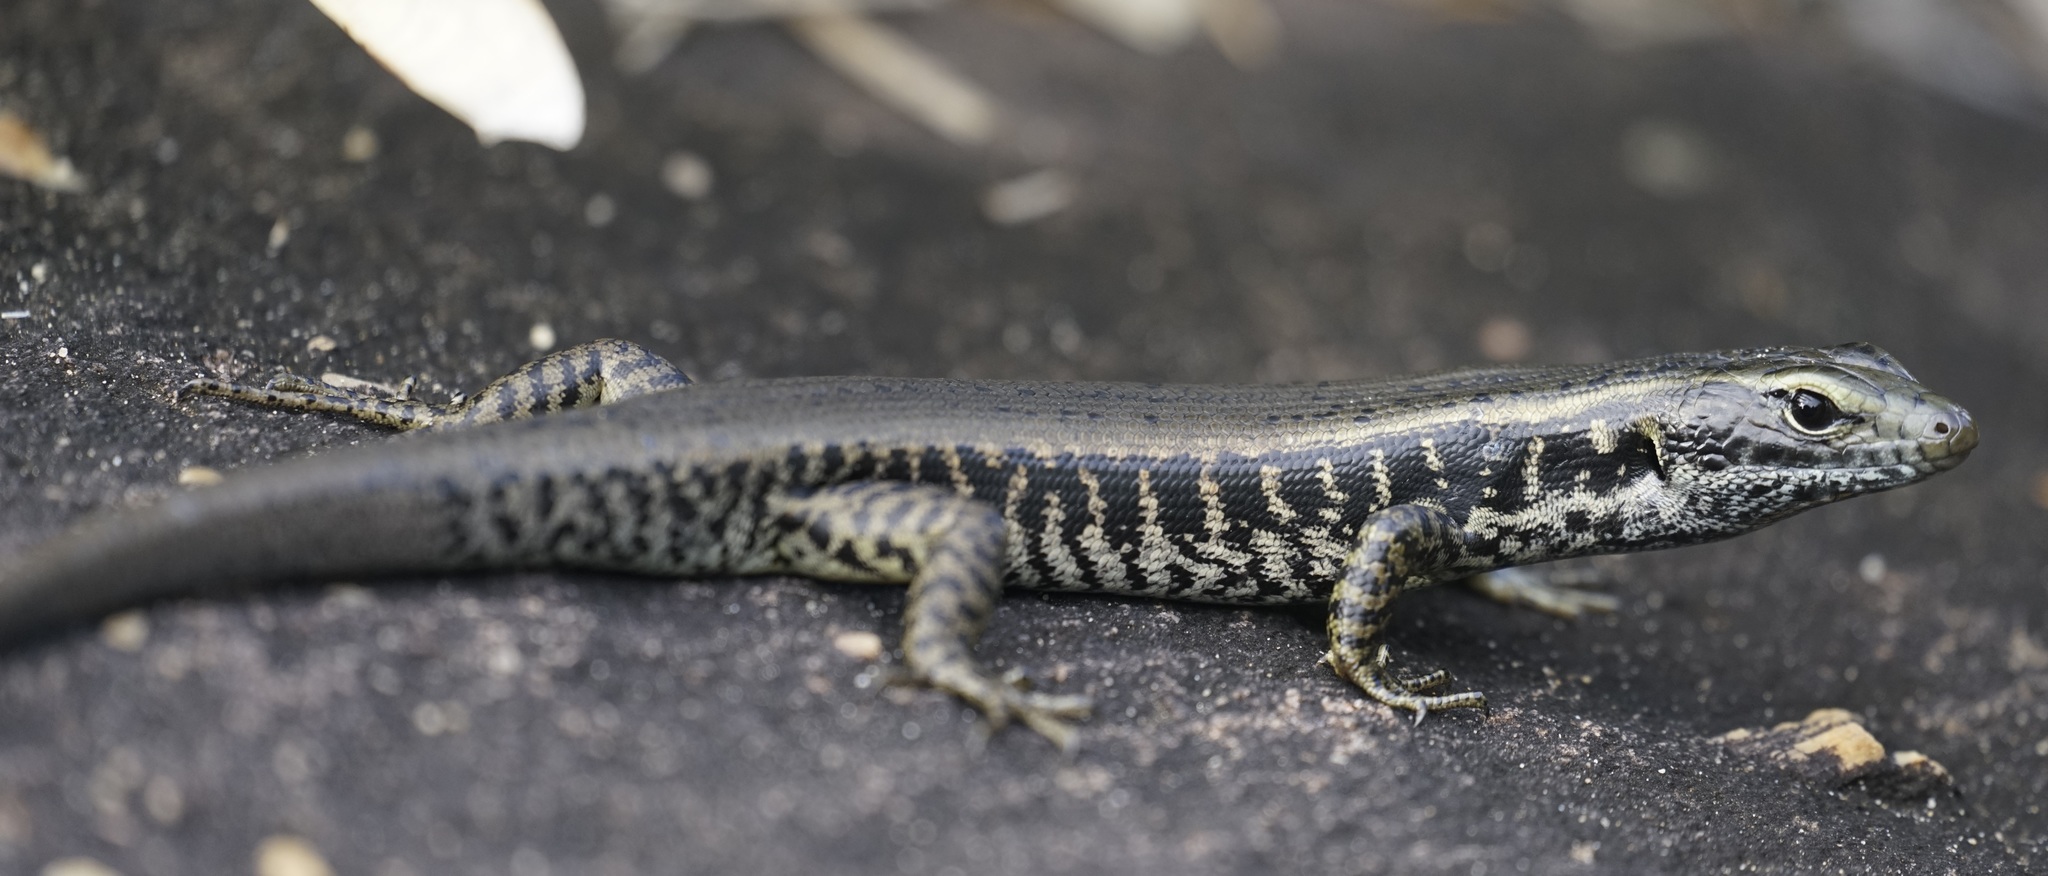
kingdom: Animalia
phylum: Chordata
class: Squamata
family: Scincidae
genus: Eulamprus
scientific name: Eulamprus quoyii
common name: Eastern water skink
